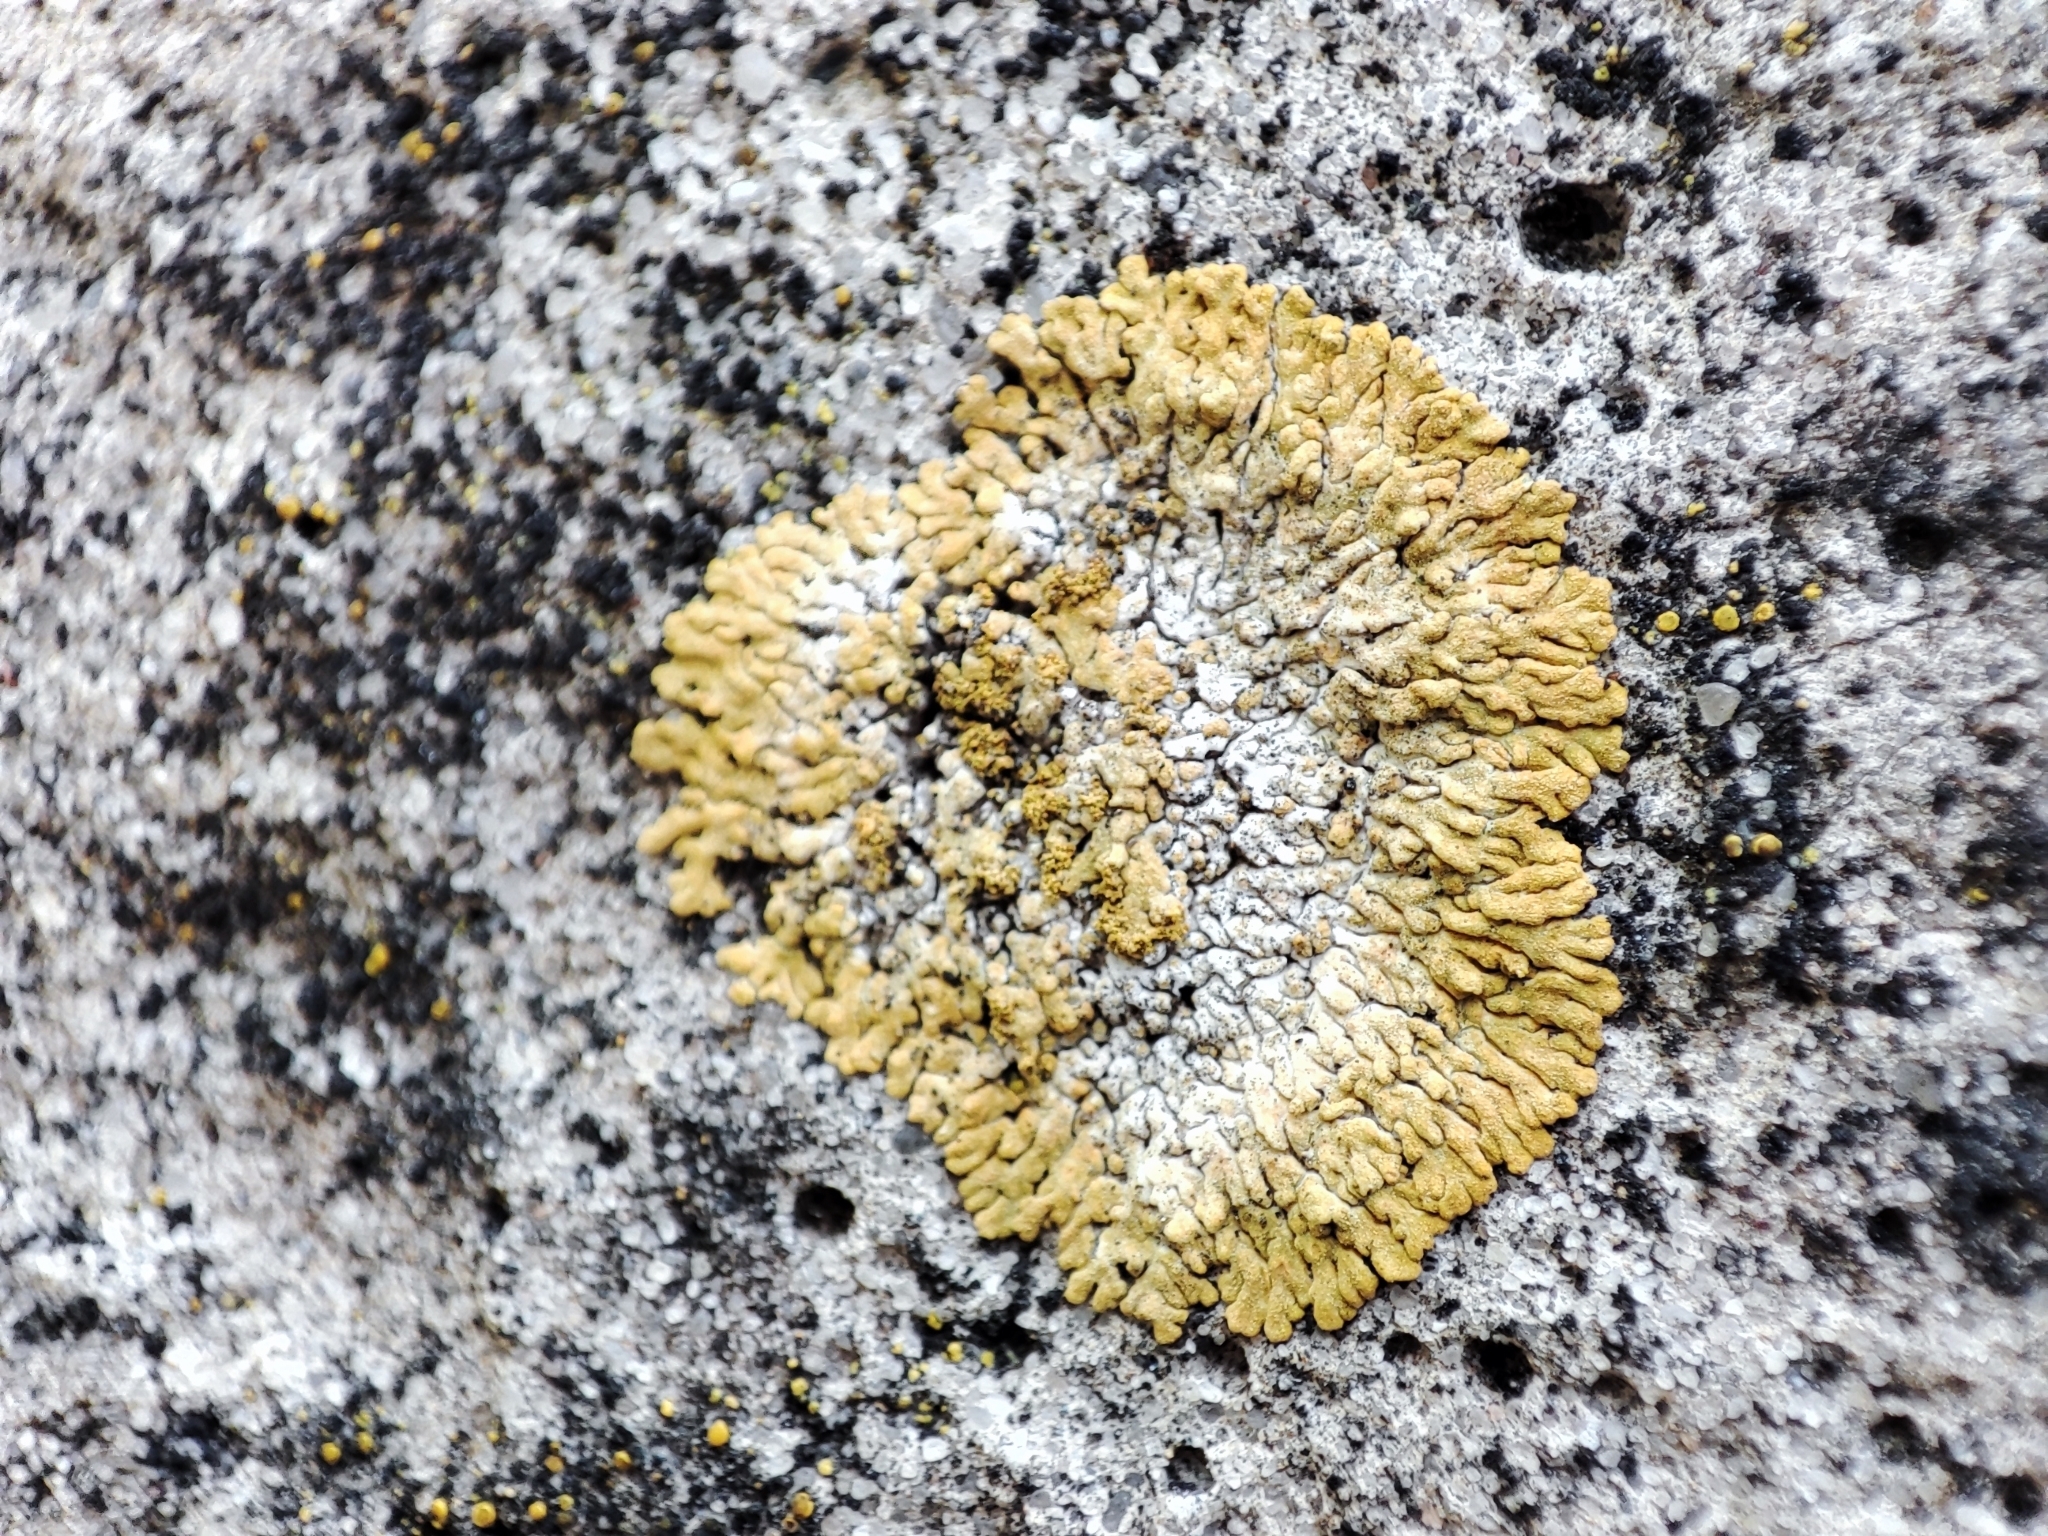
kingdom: Fungi
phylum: Ascomycota
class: Lecanoromycetes
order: Teloschistales
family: Teloschistaceae
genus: Calogaya
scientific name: Calogaya decipiens
